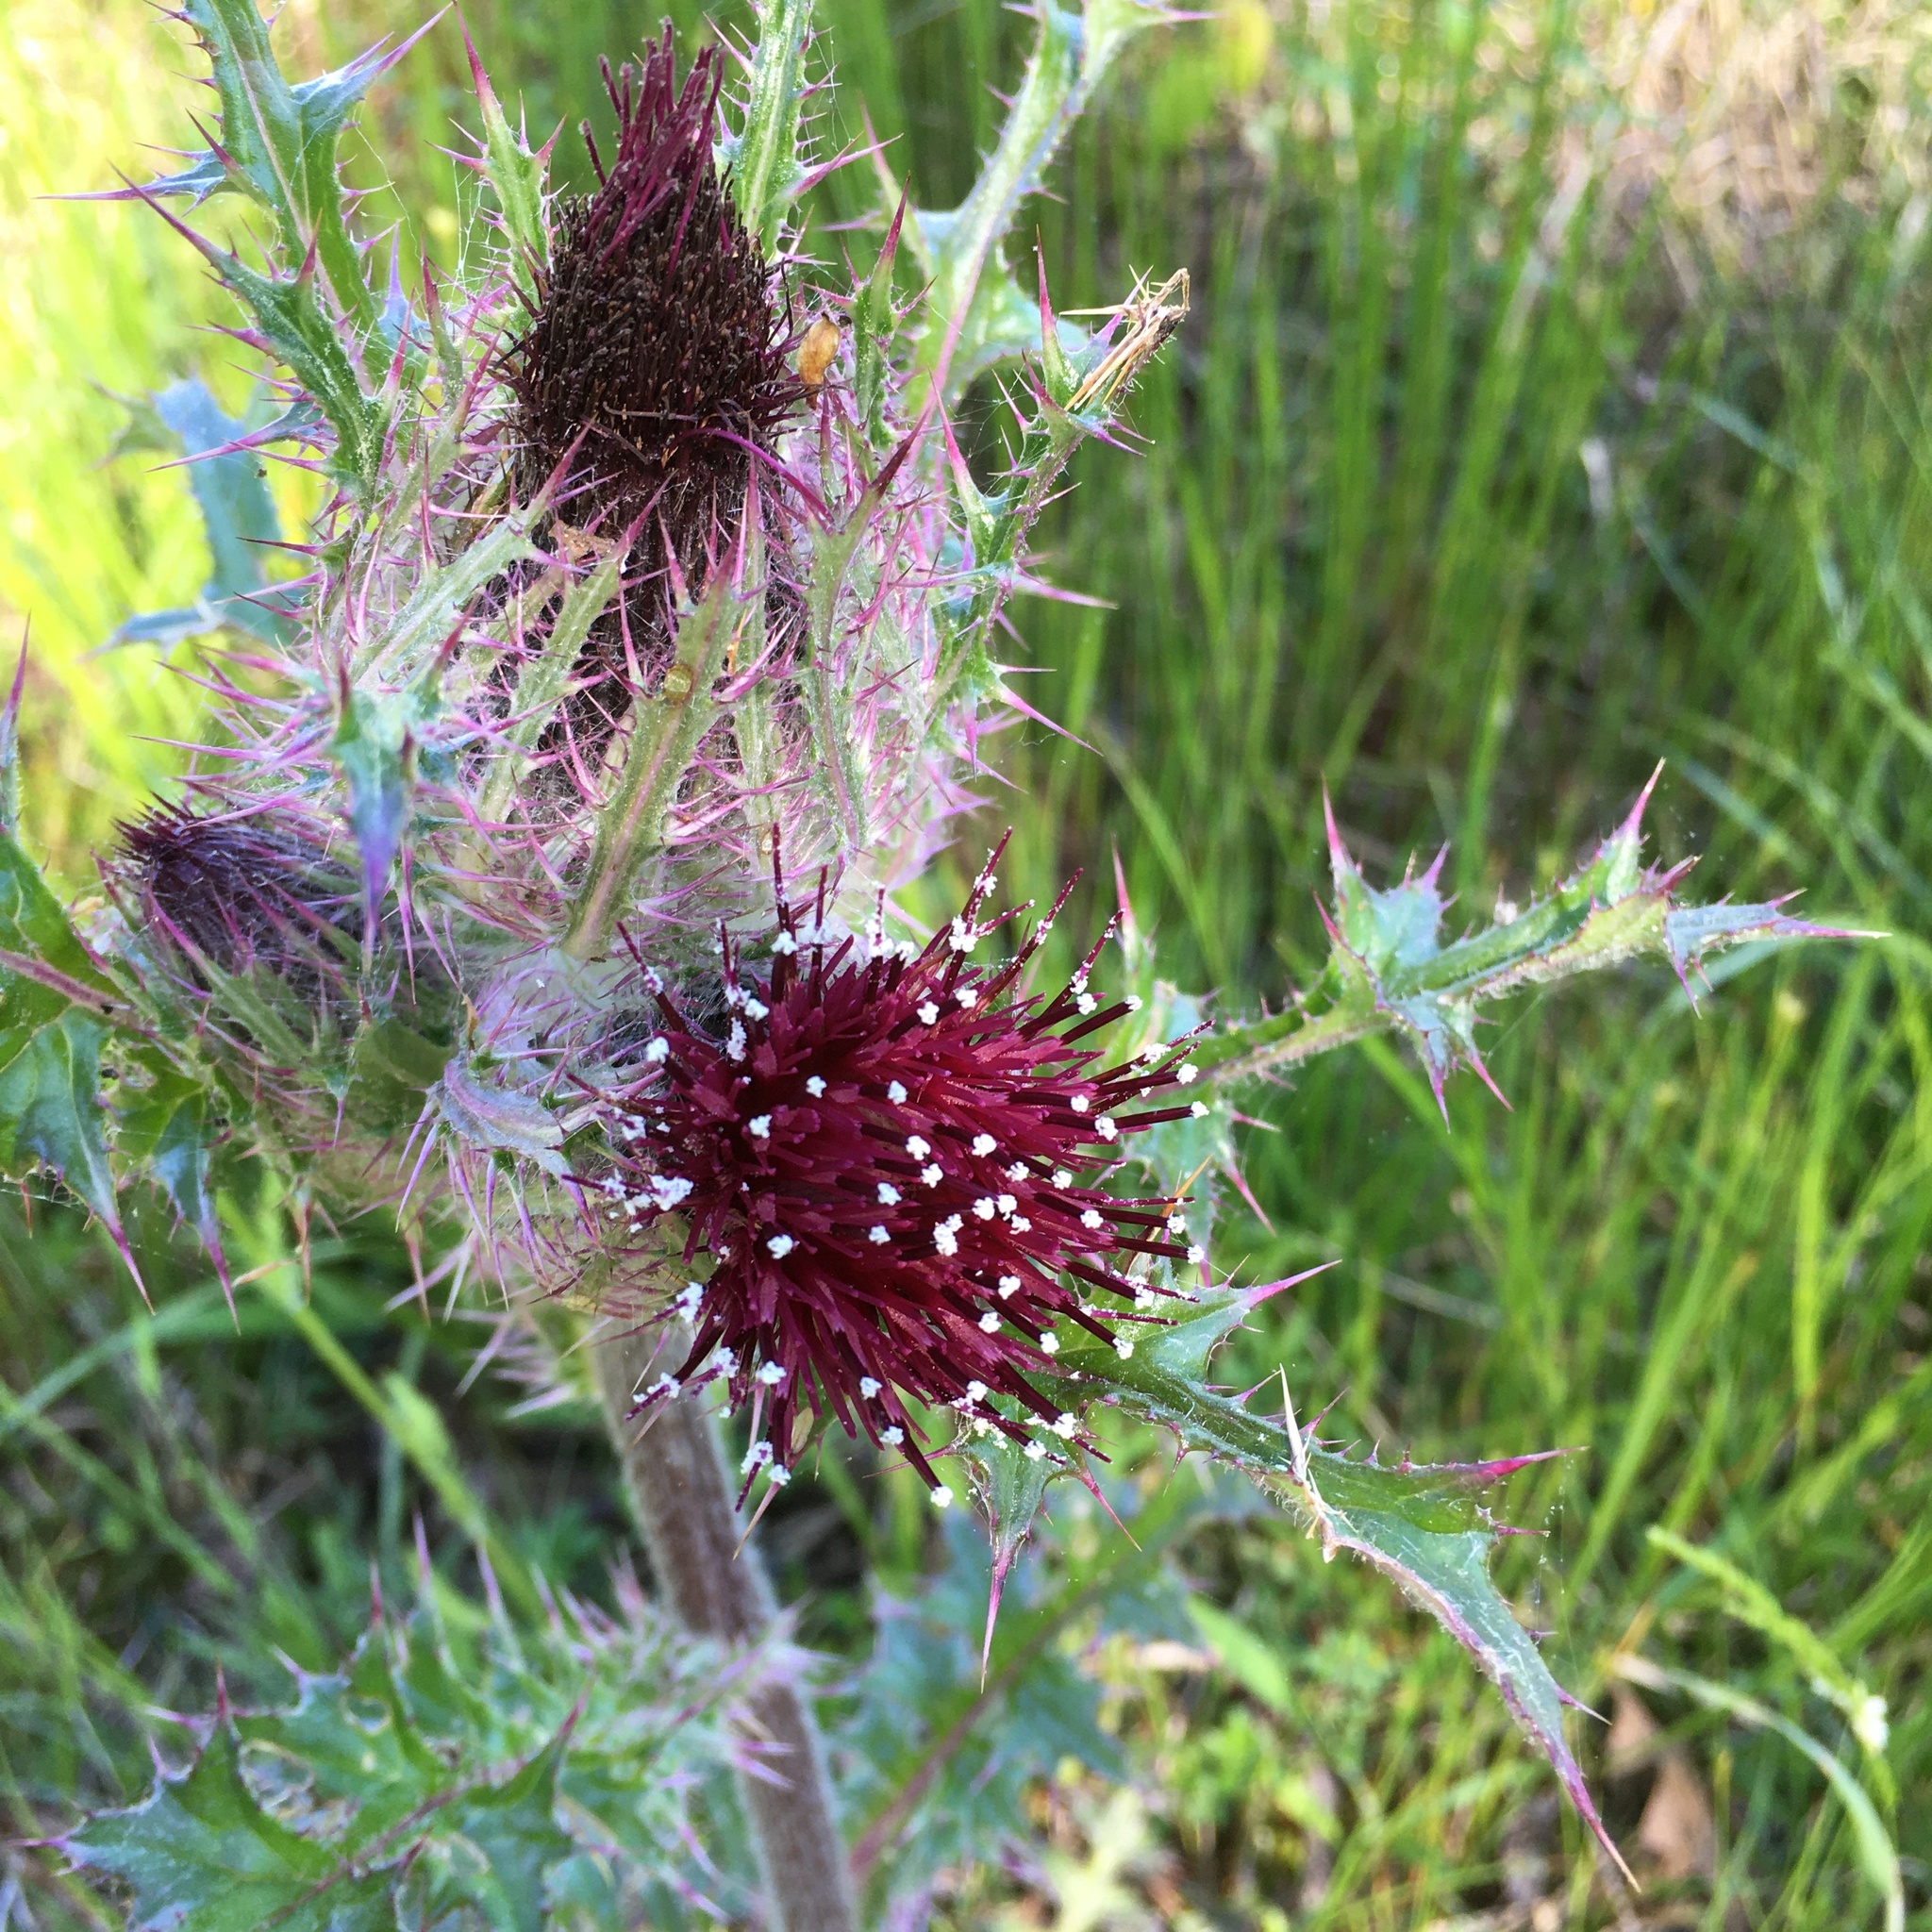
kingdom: Plantae
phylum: Tracheophyta
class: Magnoliopsida
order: Asterales
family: Asteraceae
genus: Cirsium
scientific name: Cirsium horridulum
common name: Bristly thistle
